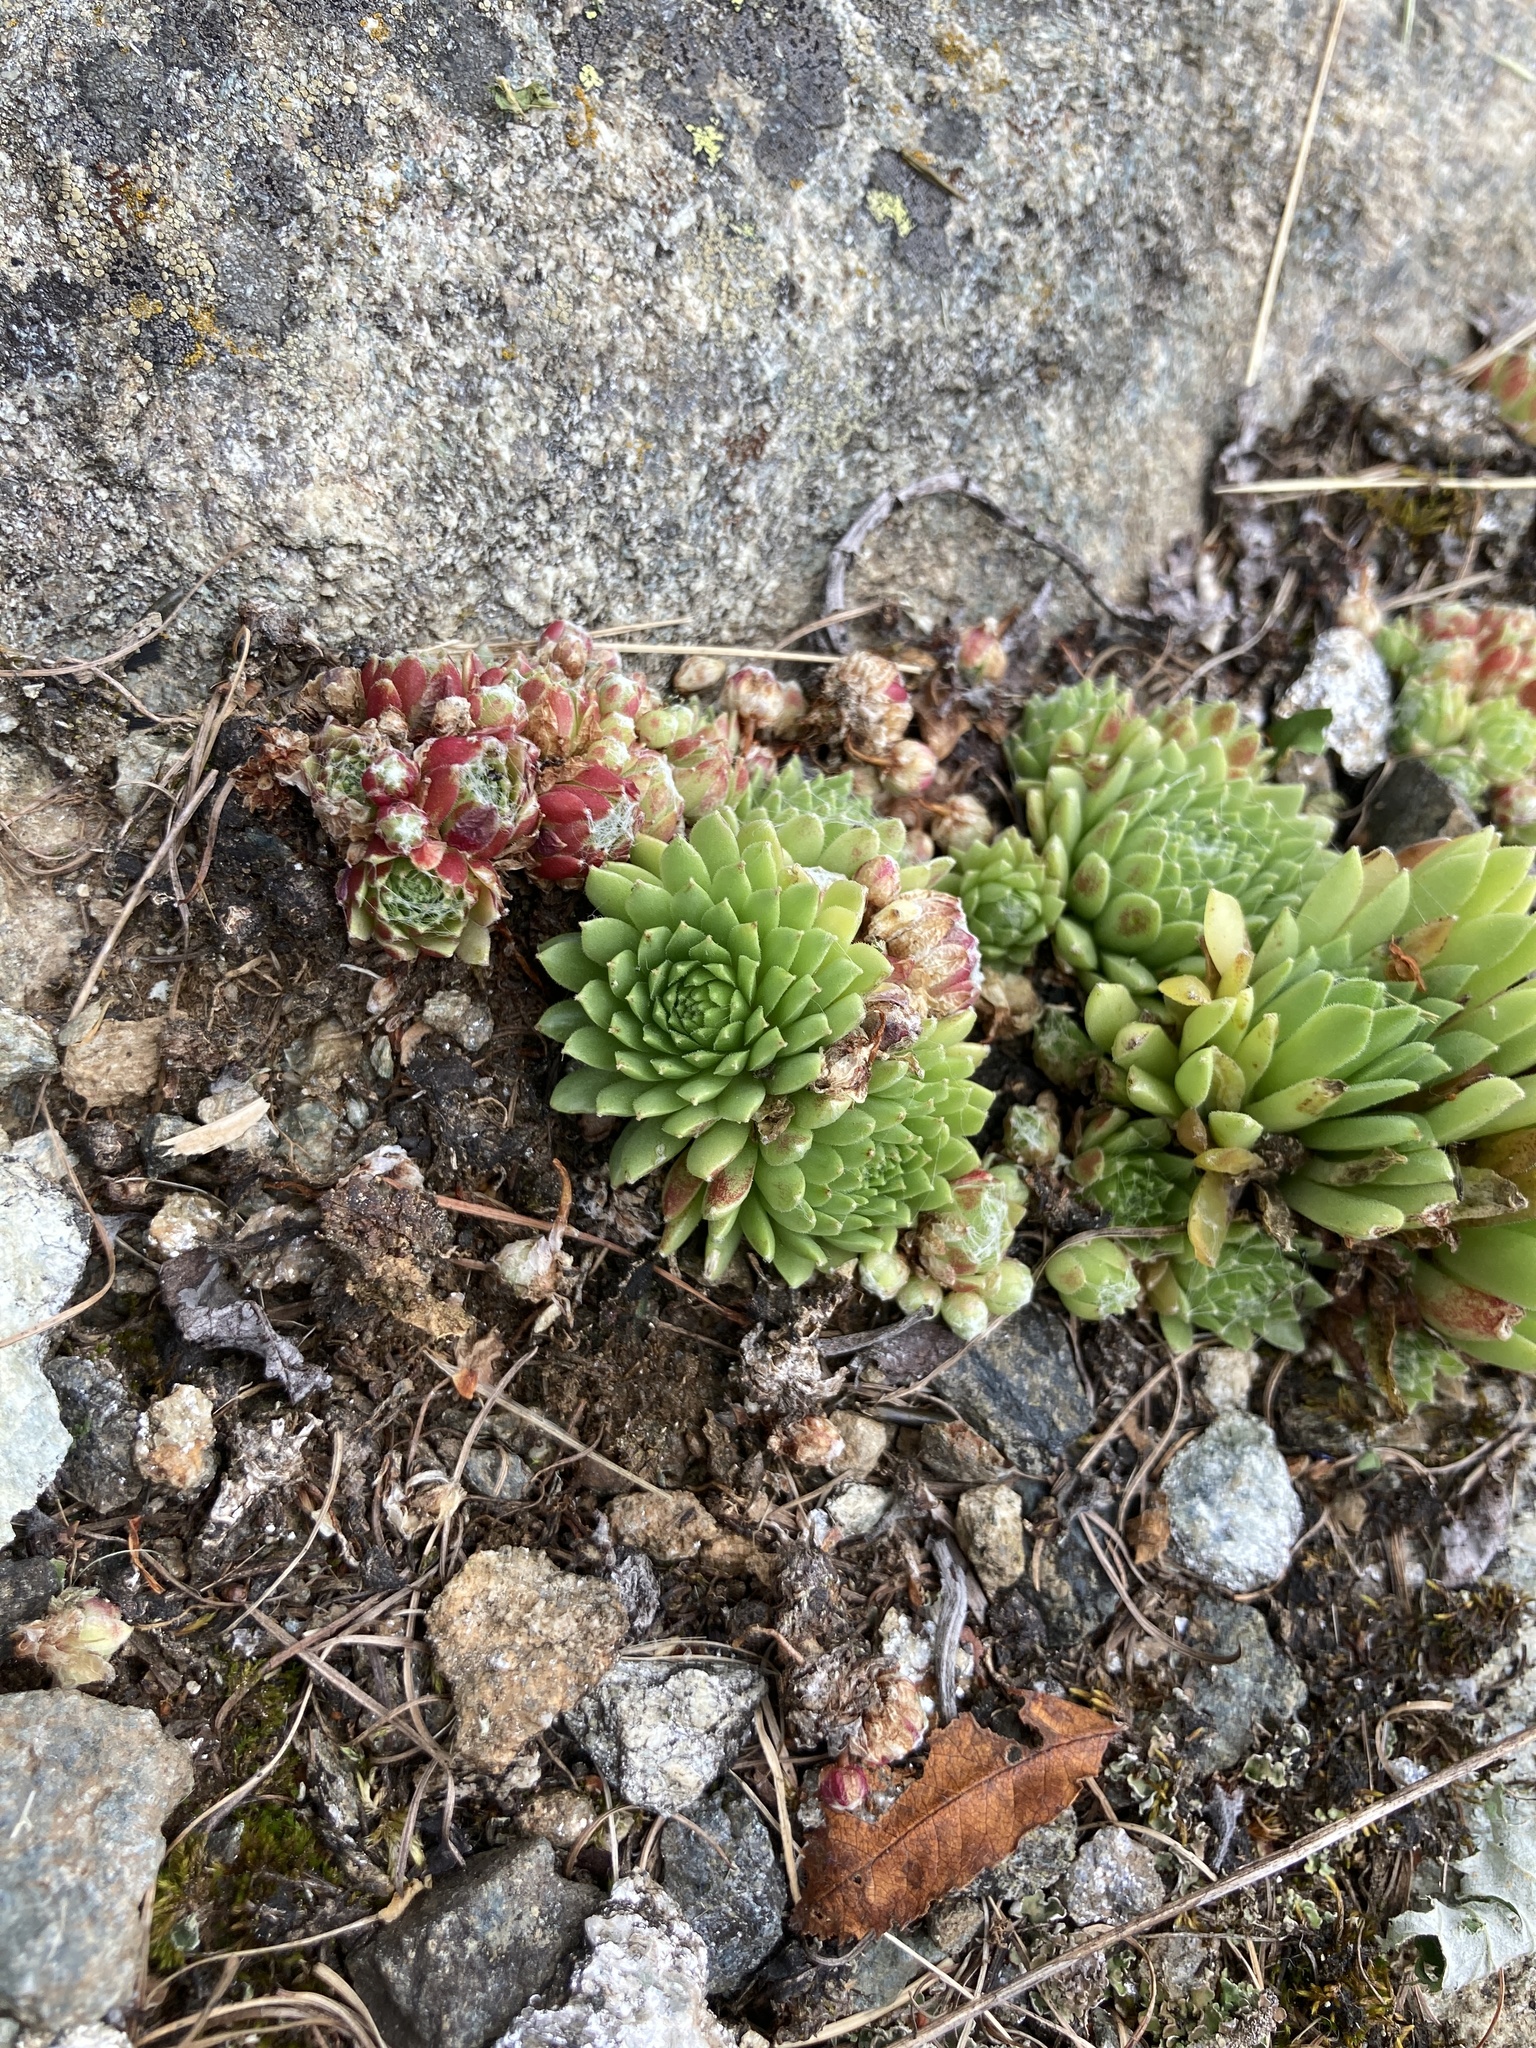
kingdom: Plantae
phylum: Tracheophyta
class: Magnoliopsida
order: Saxifragales
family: Crassulaceae
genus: Sempervivum
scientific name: Sempervivum arachnoideum
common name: Cobweb house-leek
